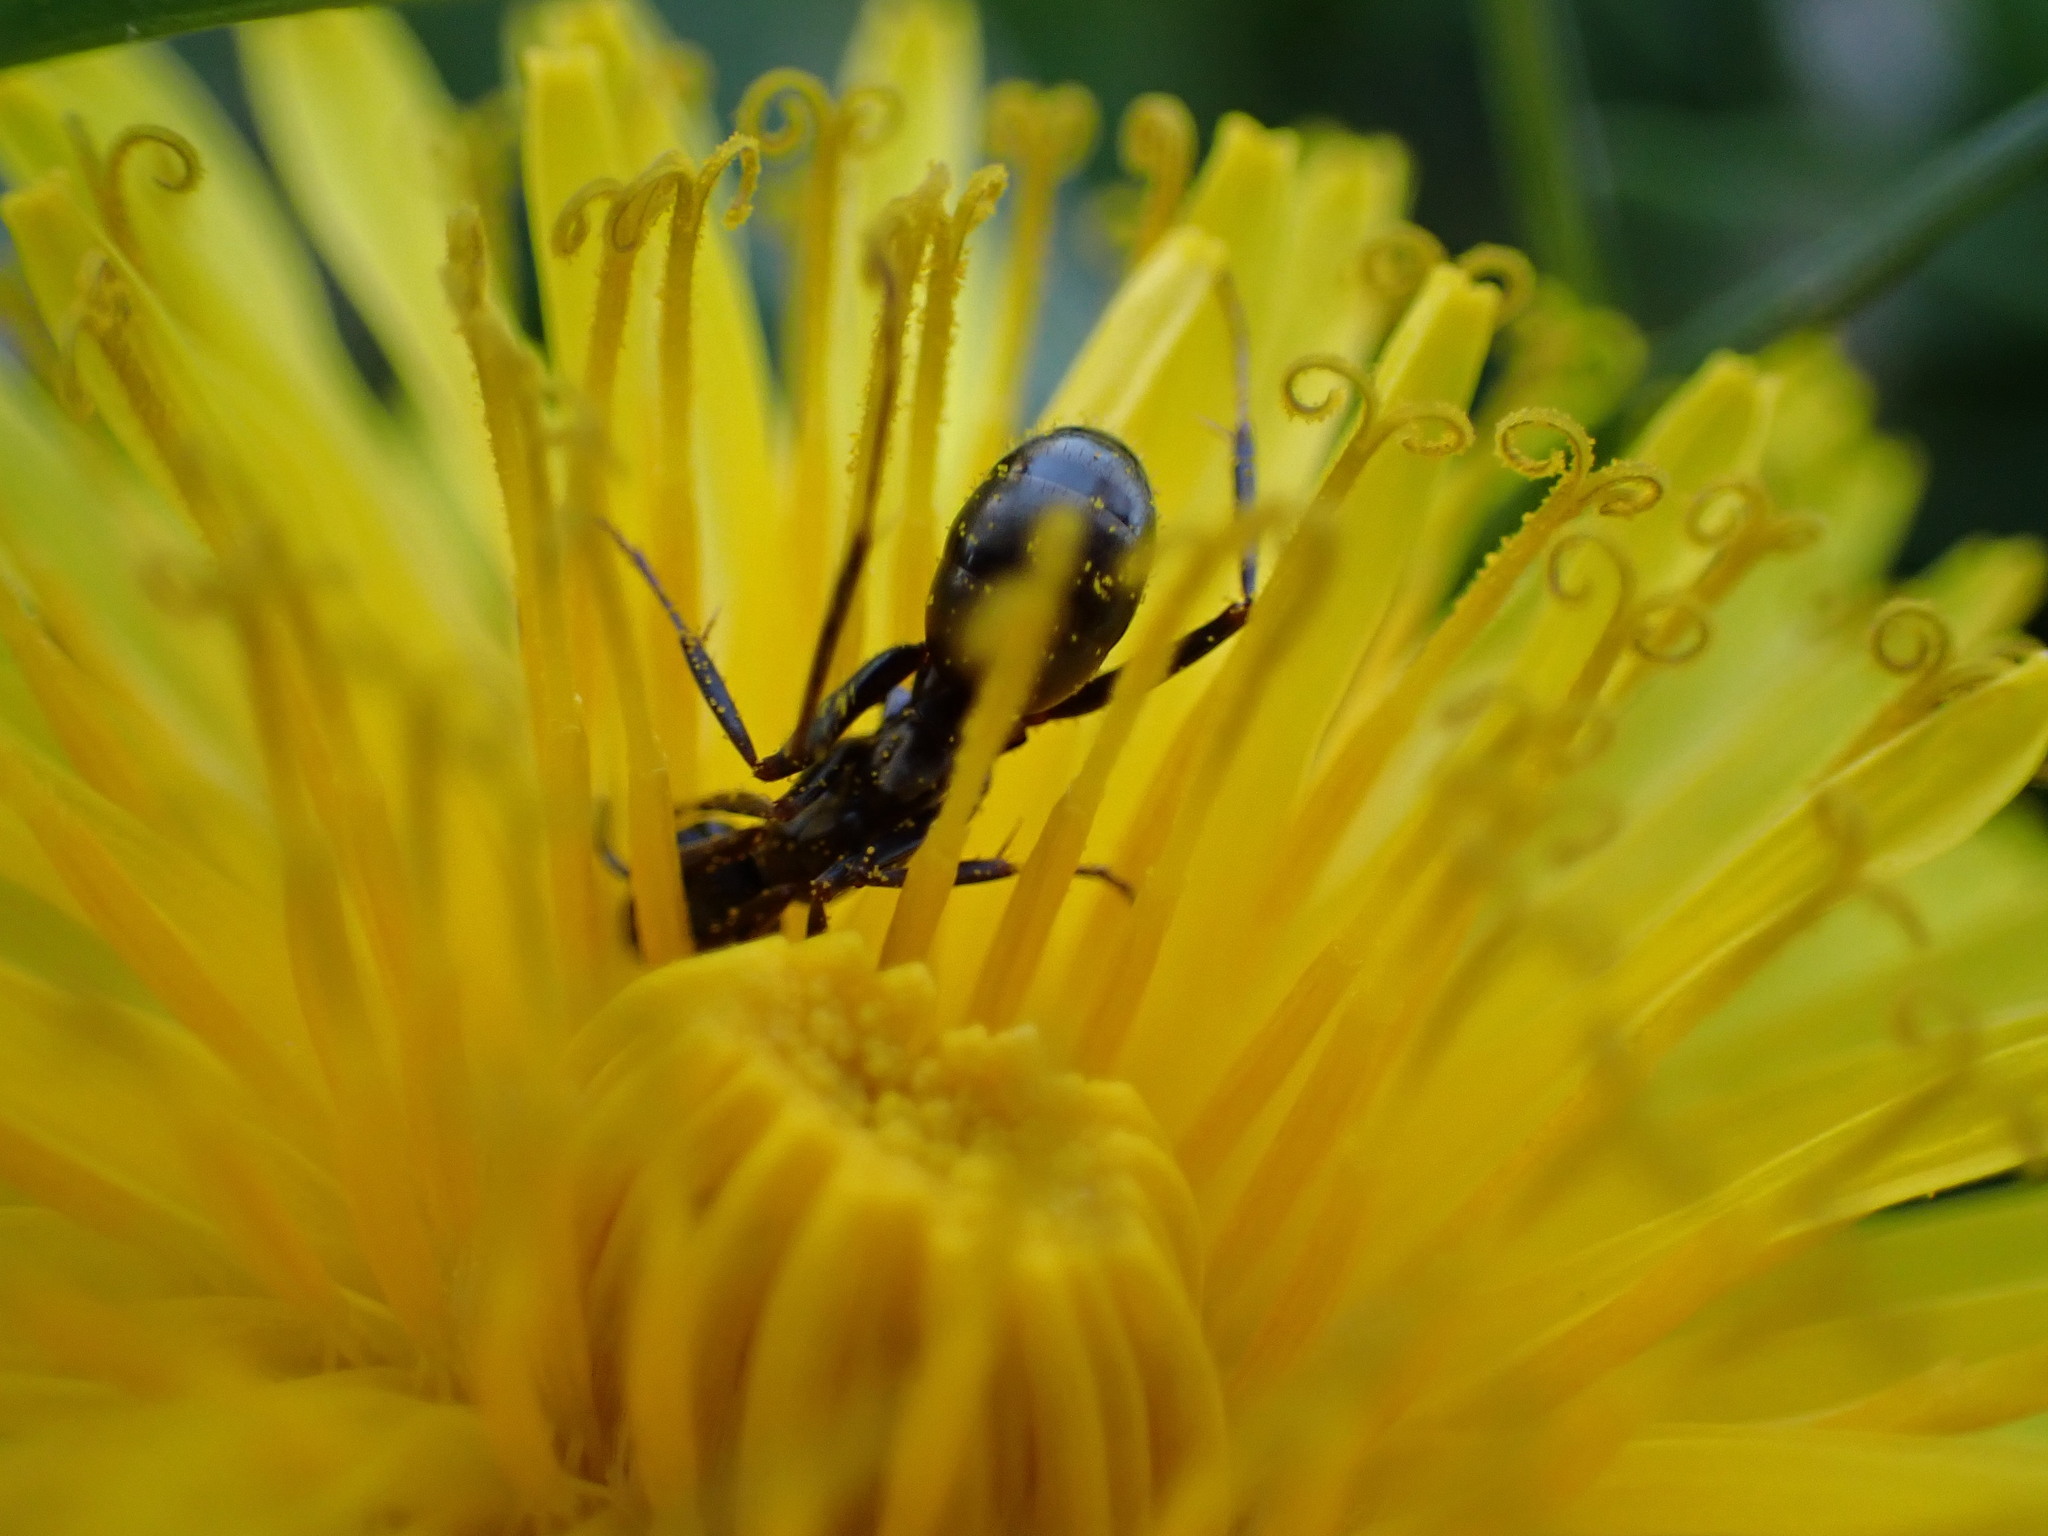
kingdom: Animalia
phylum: Arthropoda
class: Insecta
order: Hymenoptera
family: Formicidae
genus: Formica
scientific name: Formica
